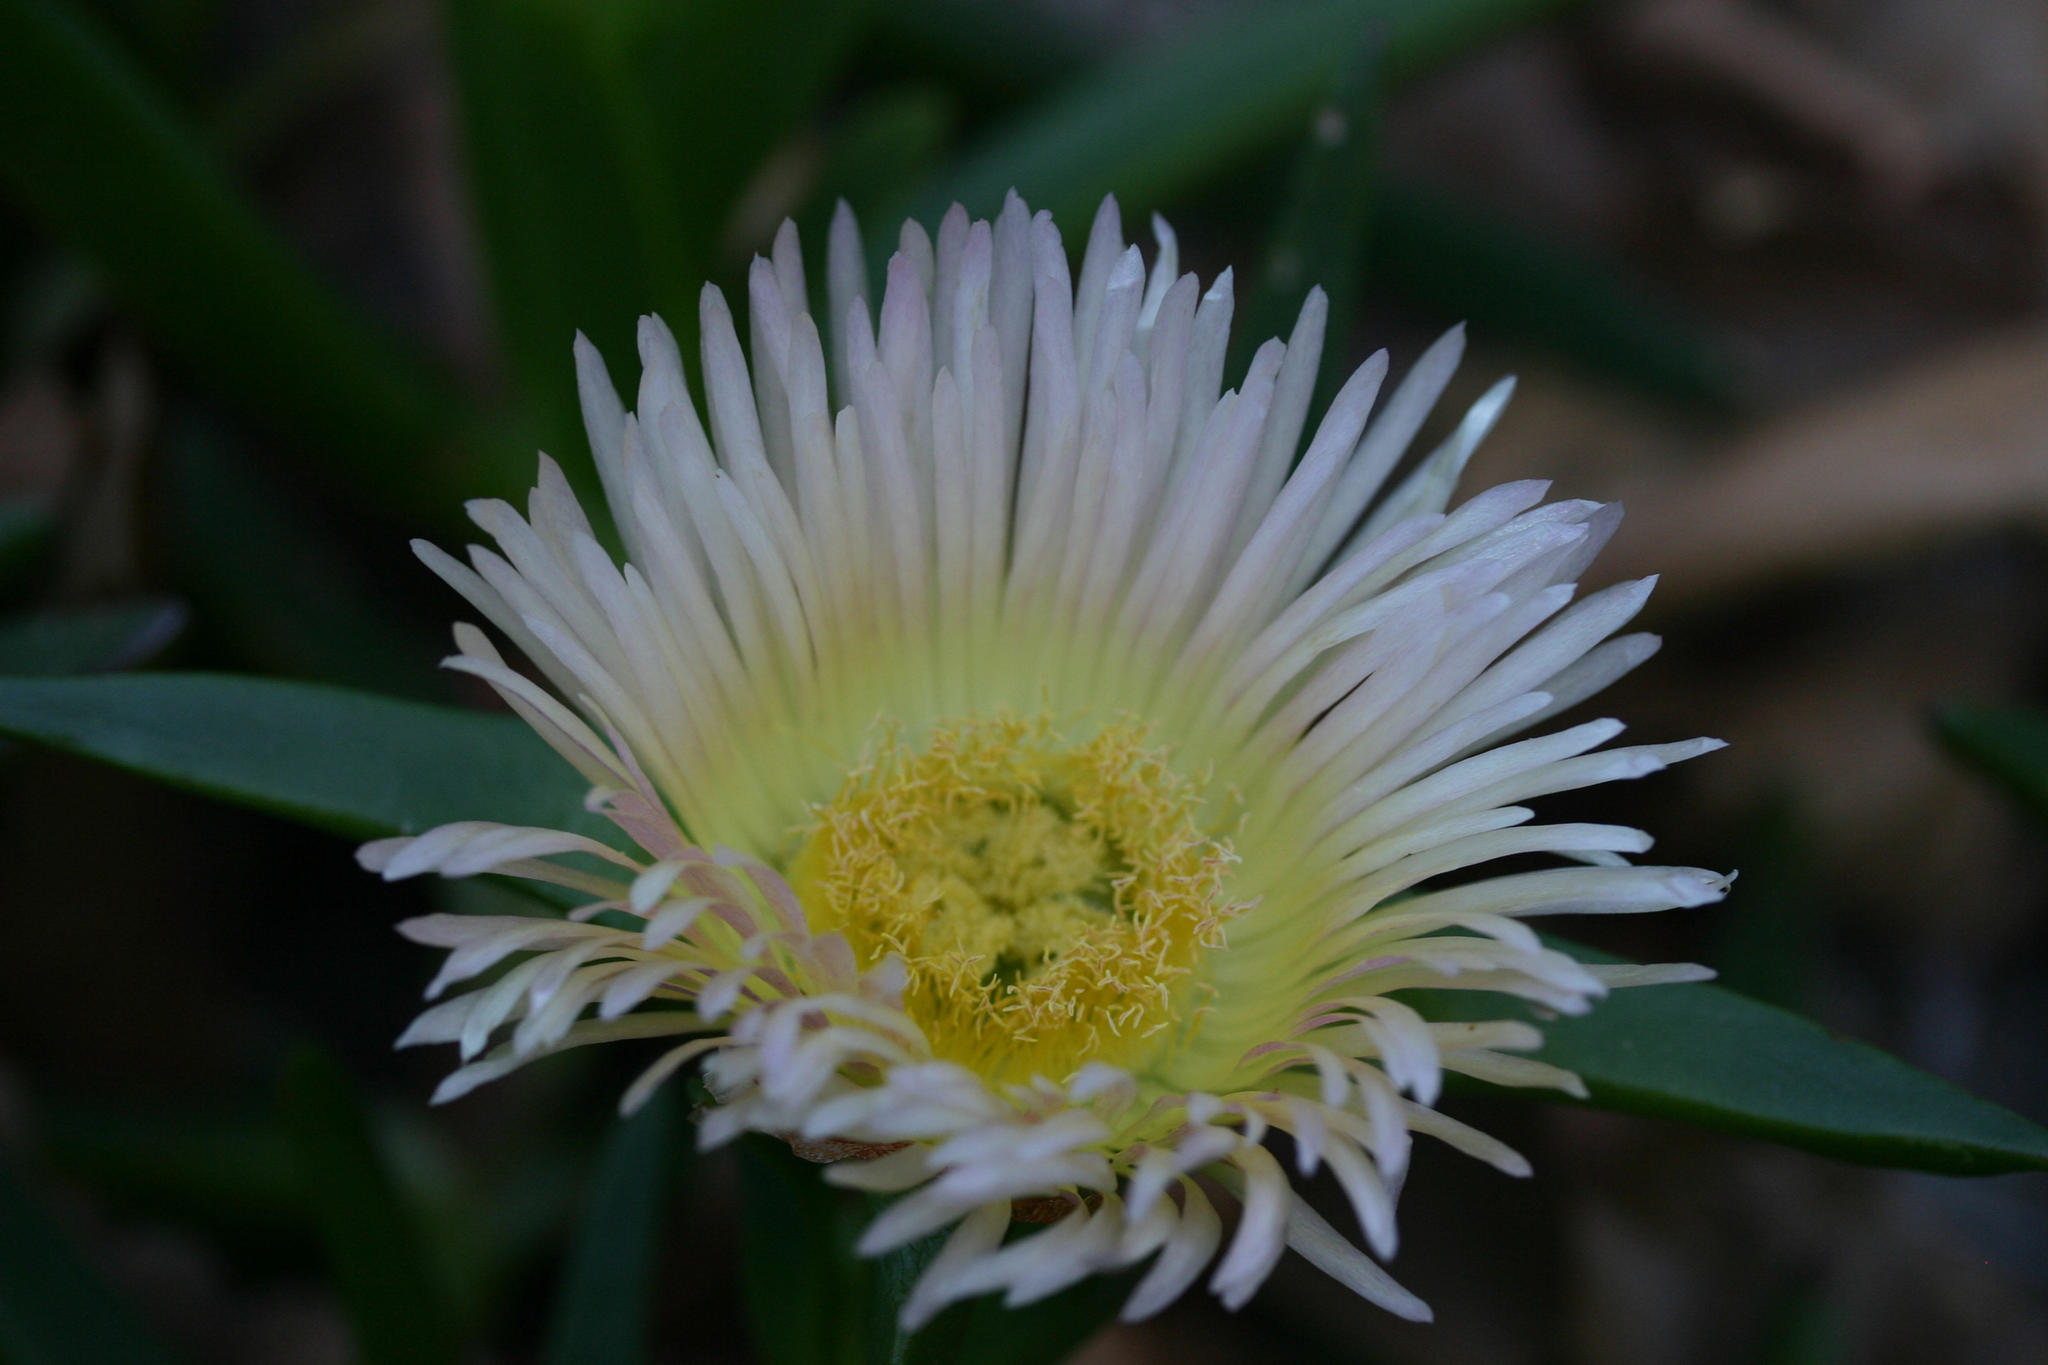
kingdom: Plantae
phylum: Tracheophyta
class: Magnoliopsida
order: Caryophyllales
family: Aizoaceae
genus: Carpobrotus
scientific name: Carpobrotus edulis
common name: Hottentot-fig
